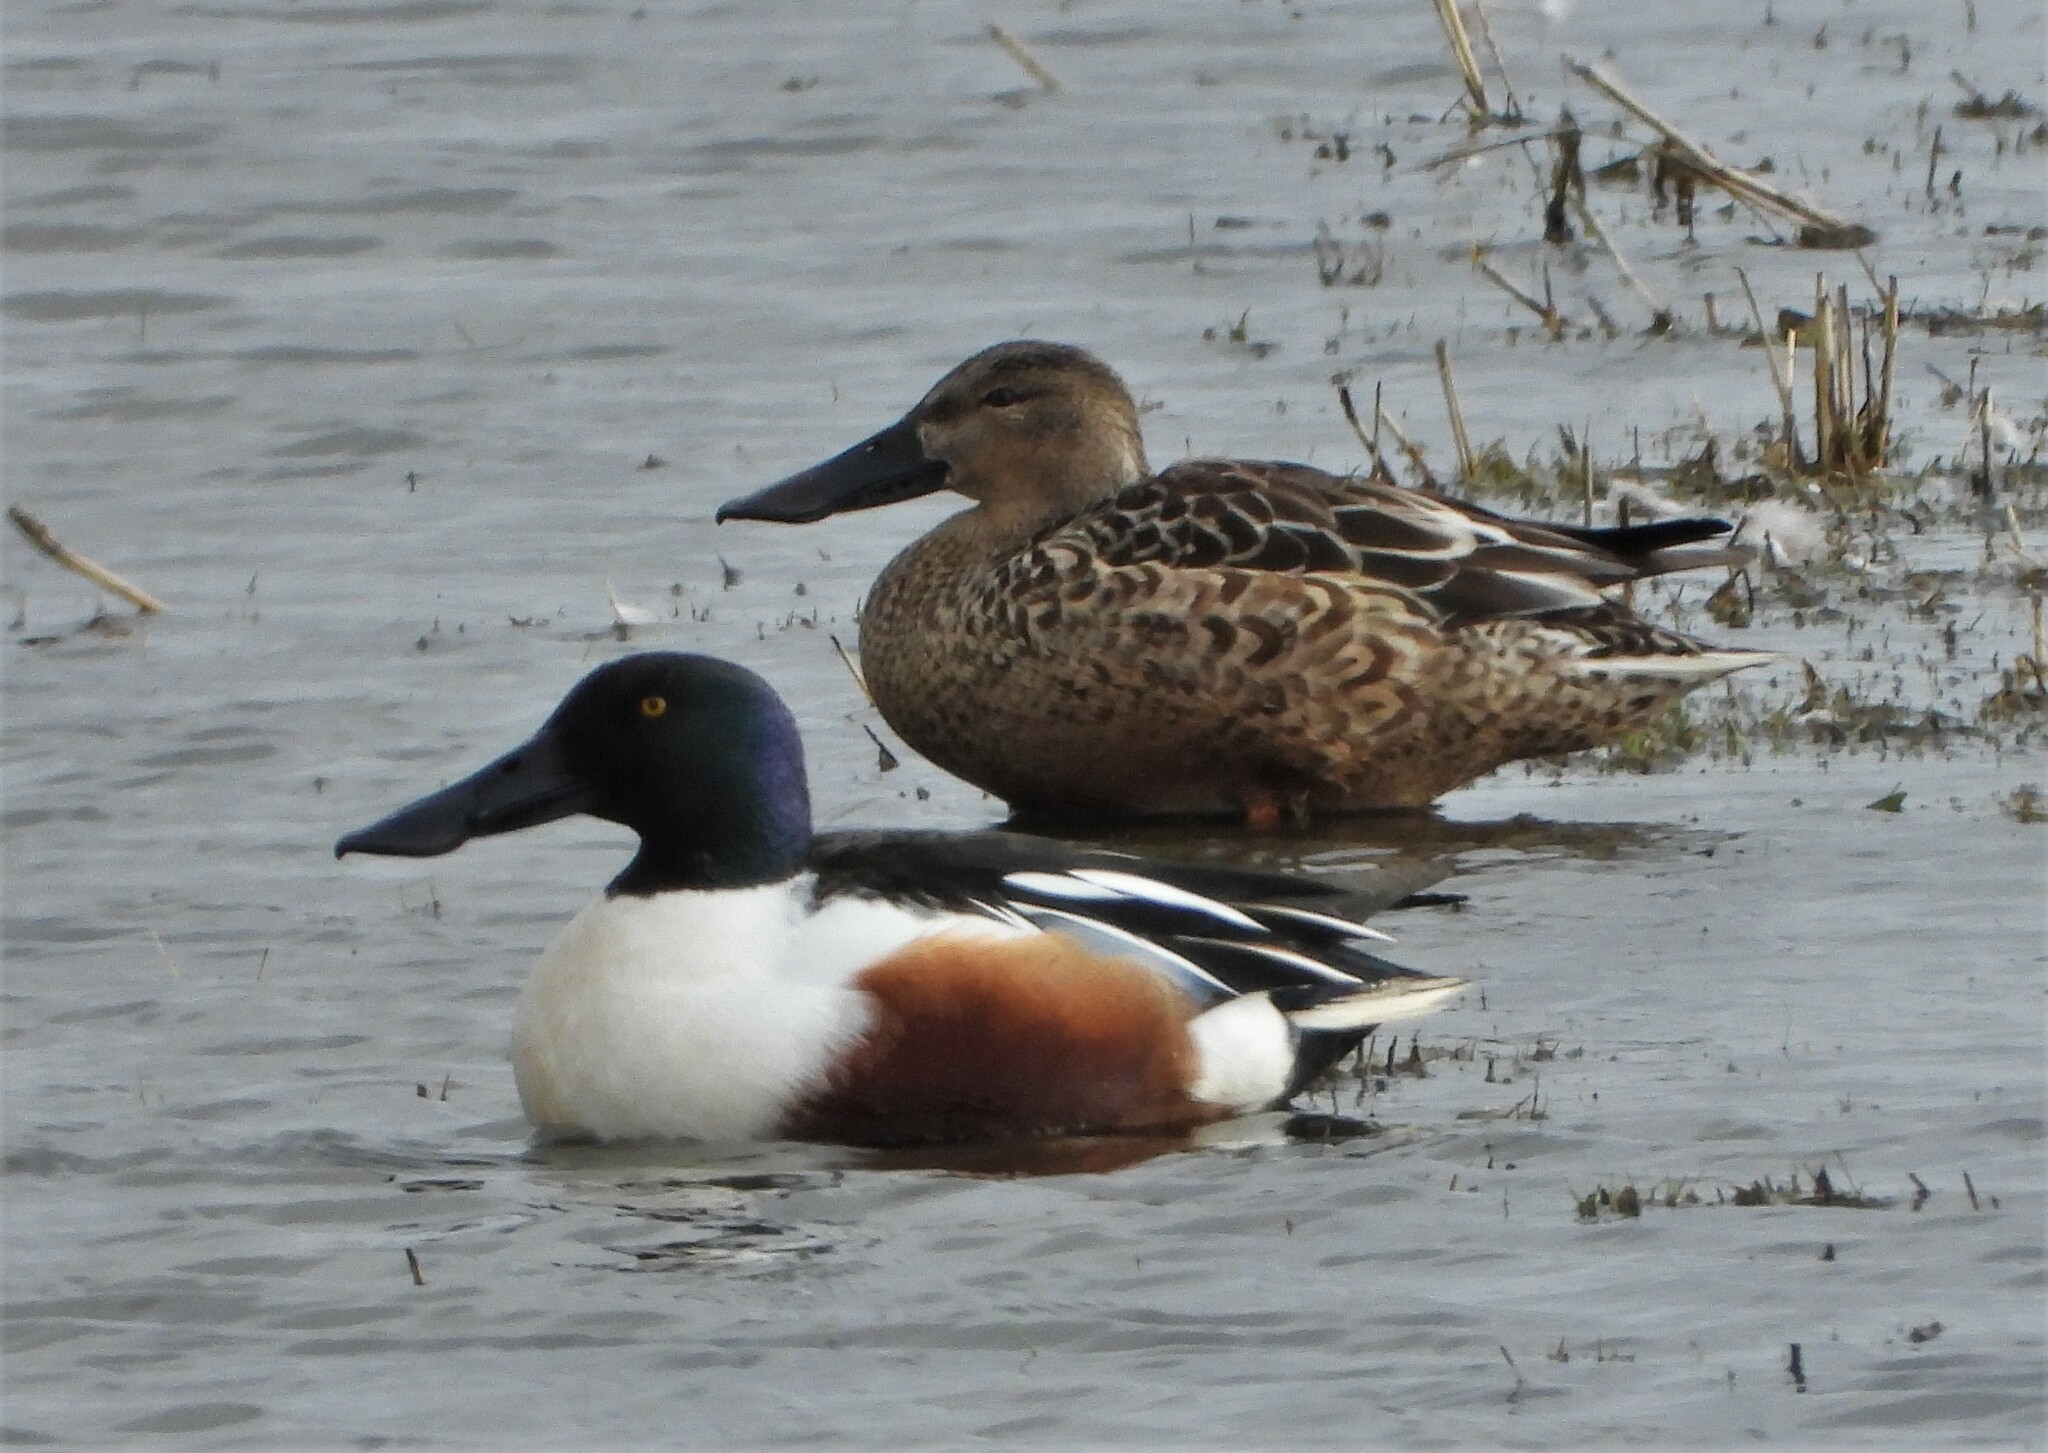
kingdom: Animalia
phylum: Chordata
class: Aves
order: Anseriformes
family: Anatidae
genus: Spatula
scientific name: Spatula clypeata
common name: Northern shoveler
